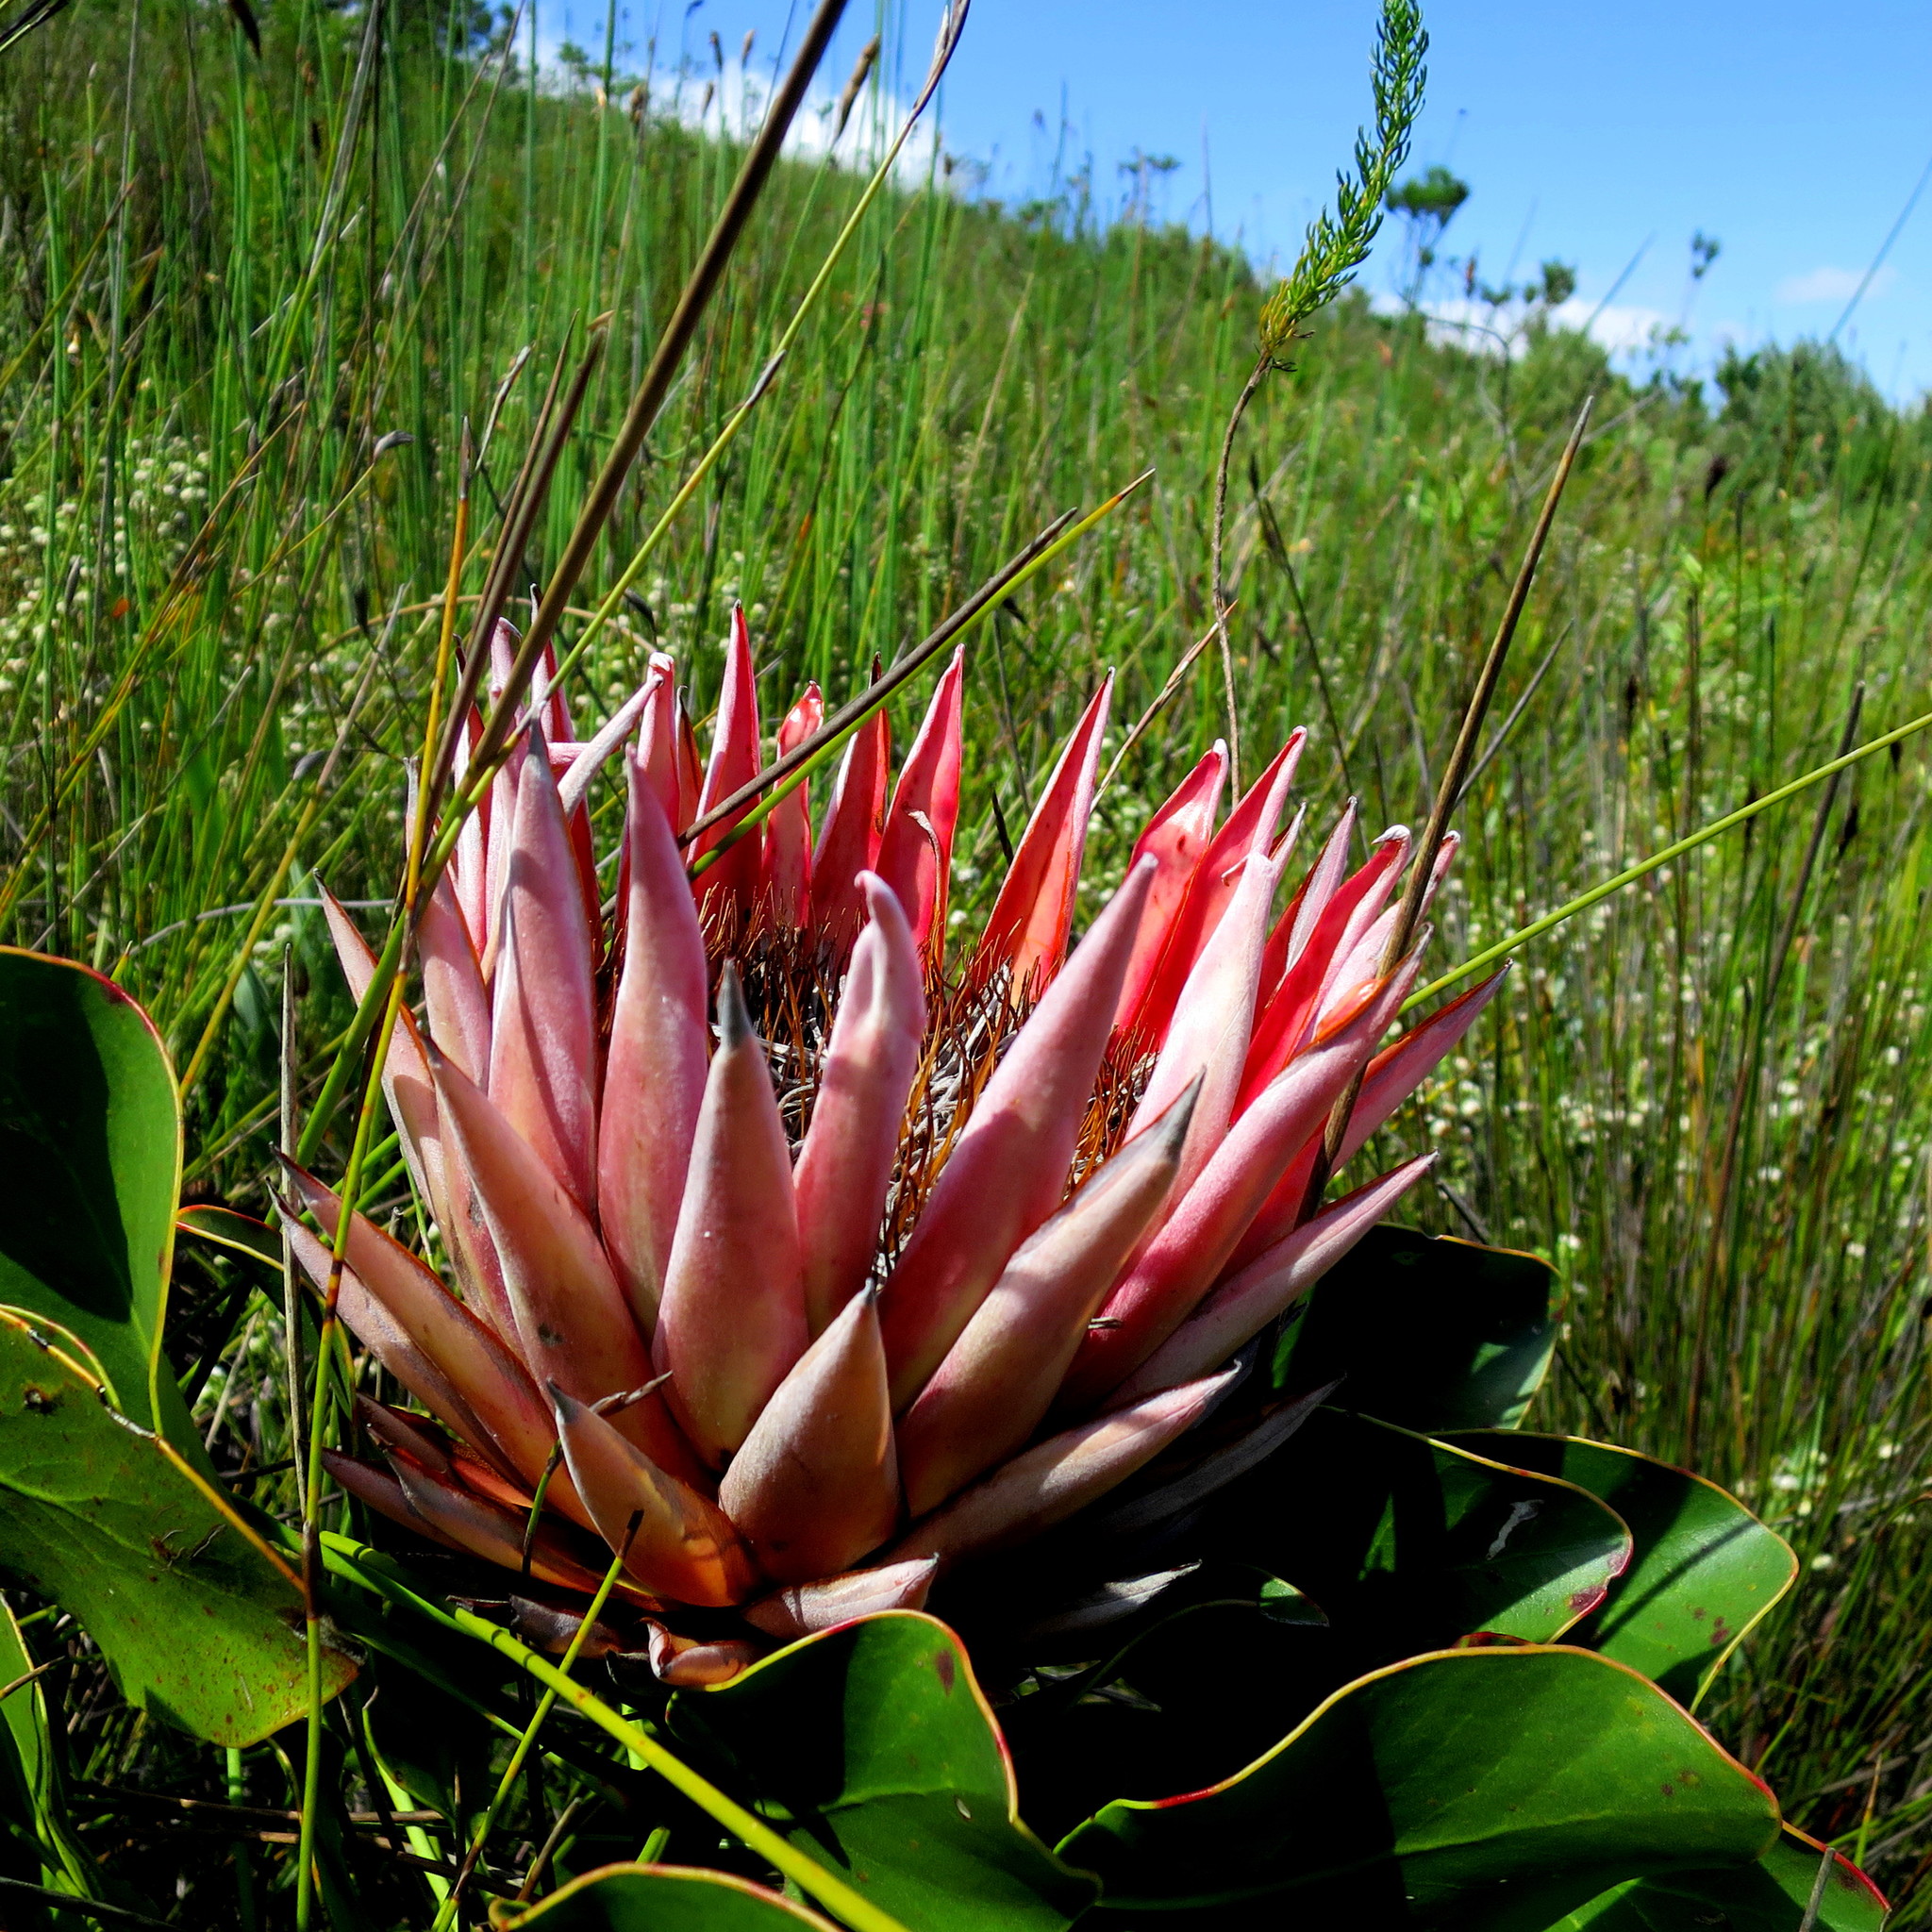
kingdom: Plantae
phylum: Tracheophyta
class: Magnoliopsida
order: Proteales
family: Proteaceae
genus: Protea
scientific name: Protea cynaroides
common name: King protea
